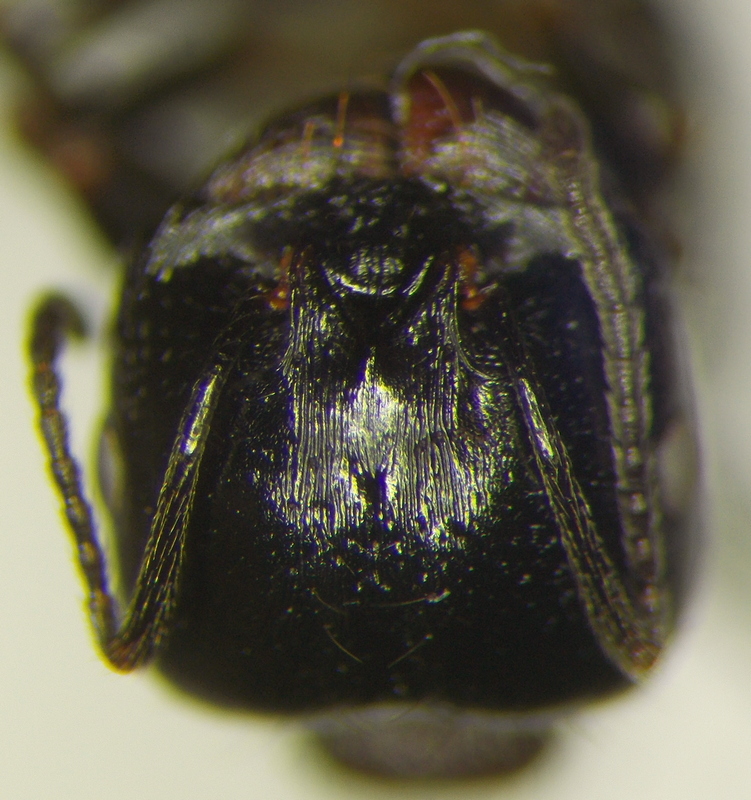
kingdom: Animalia
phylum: Arthropoda
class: Insecta
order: Hymenoptera
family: Formicidae
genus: Messor
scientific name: Messor denticulatus
